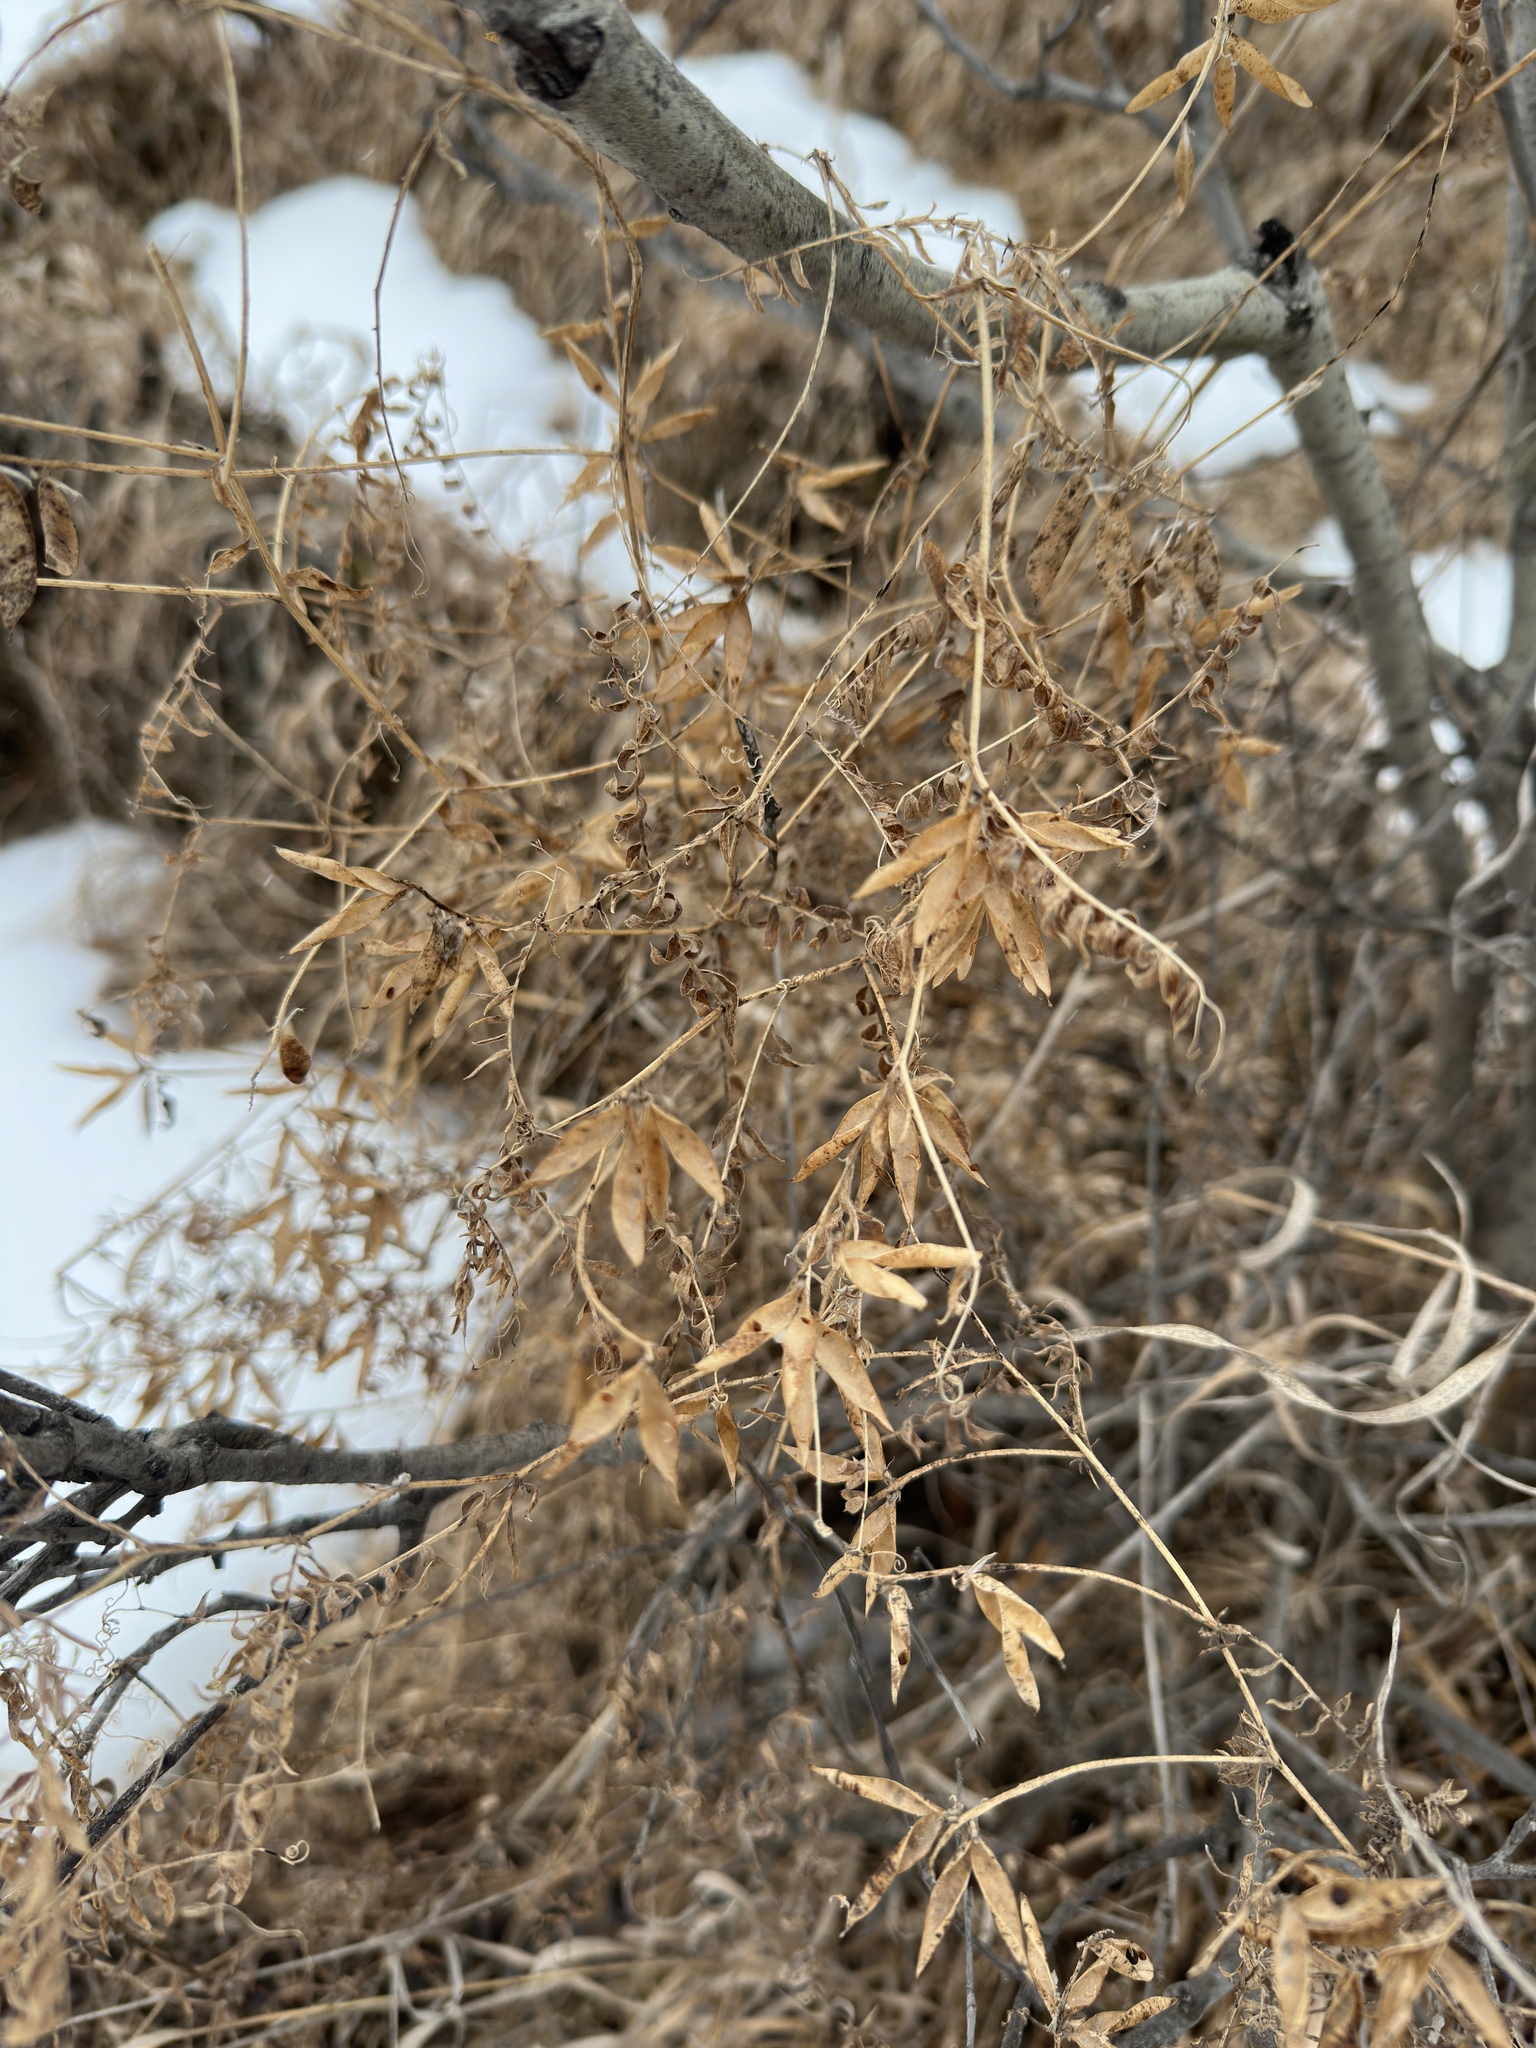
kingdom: Plantae
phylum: Tracheophyta
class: Magnoliopsida
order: Fabales
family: Fabaceae
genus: Vicia
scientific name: Vicia cracca
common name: Bird vetch
